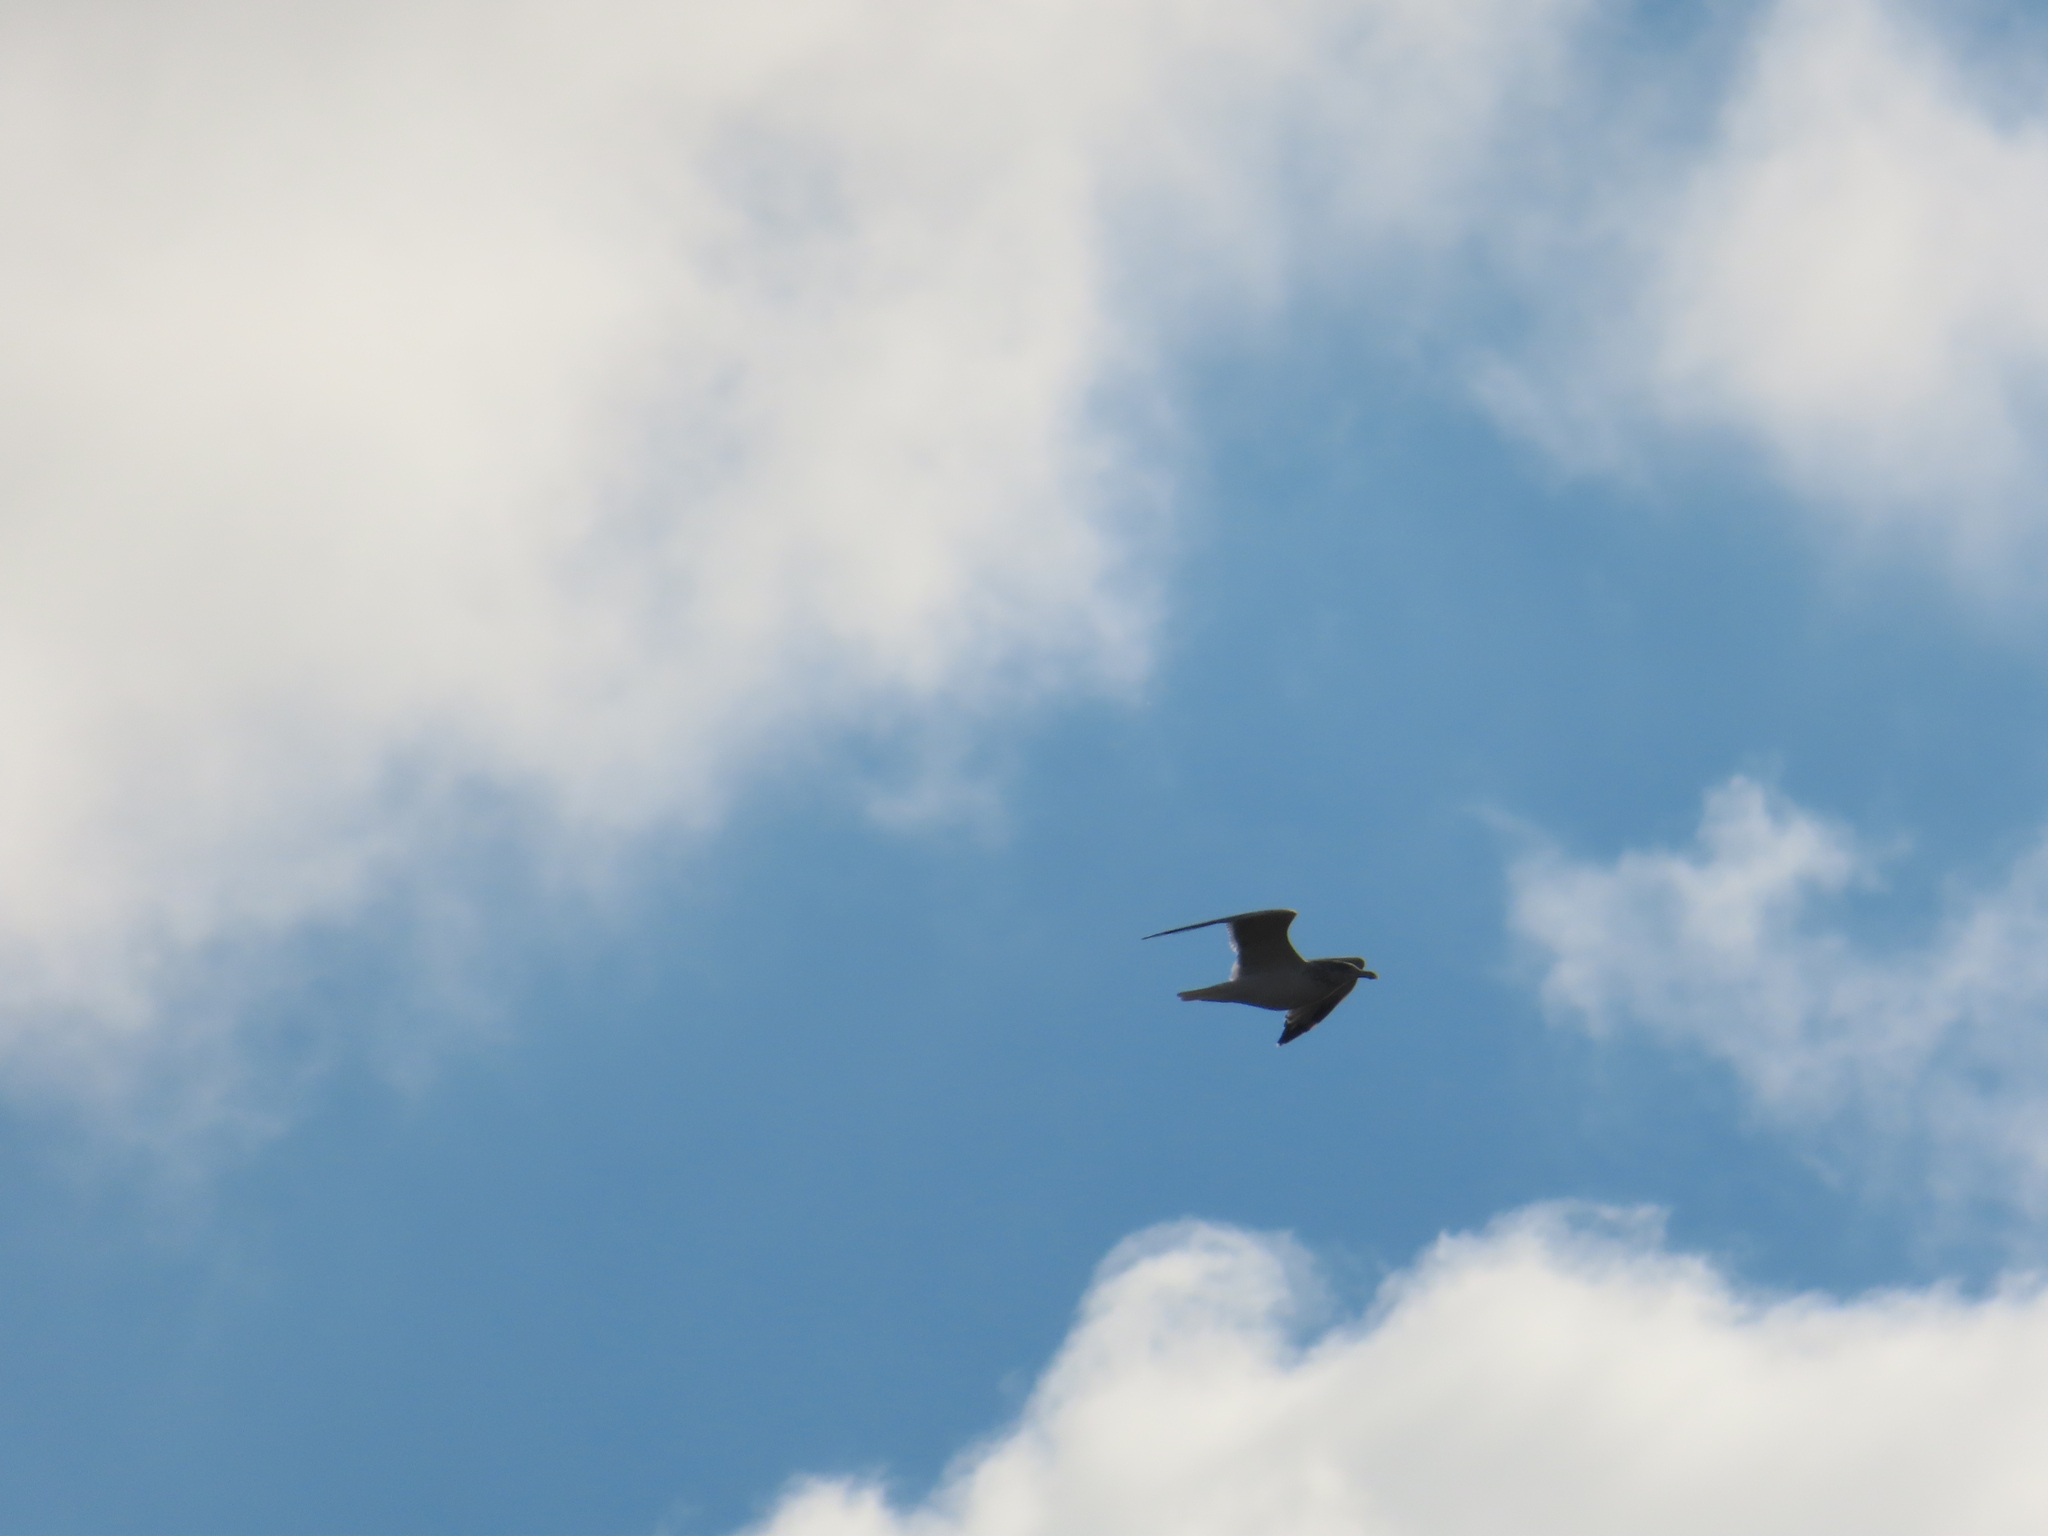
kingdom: Animalia
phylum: Chordata
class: Aves
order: Charadriiformes
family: Laridae
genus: Larus
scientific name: Larus argentatus
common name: Herring gull
